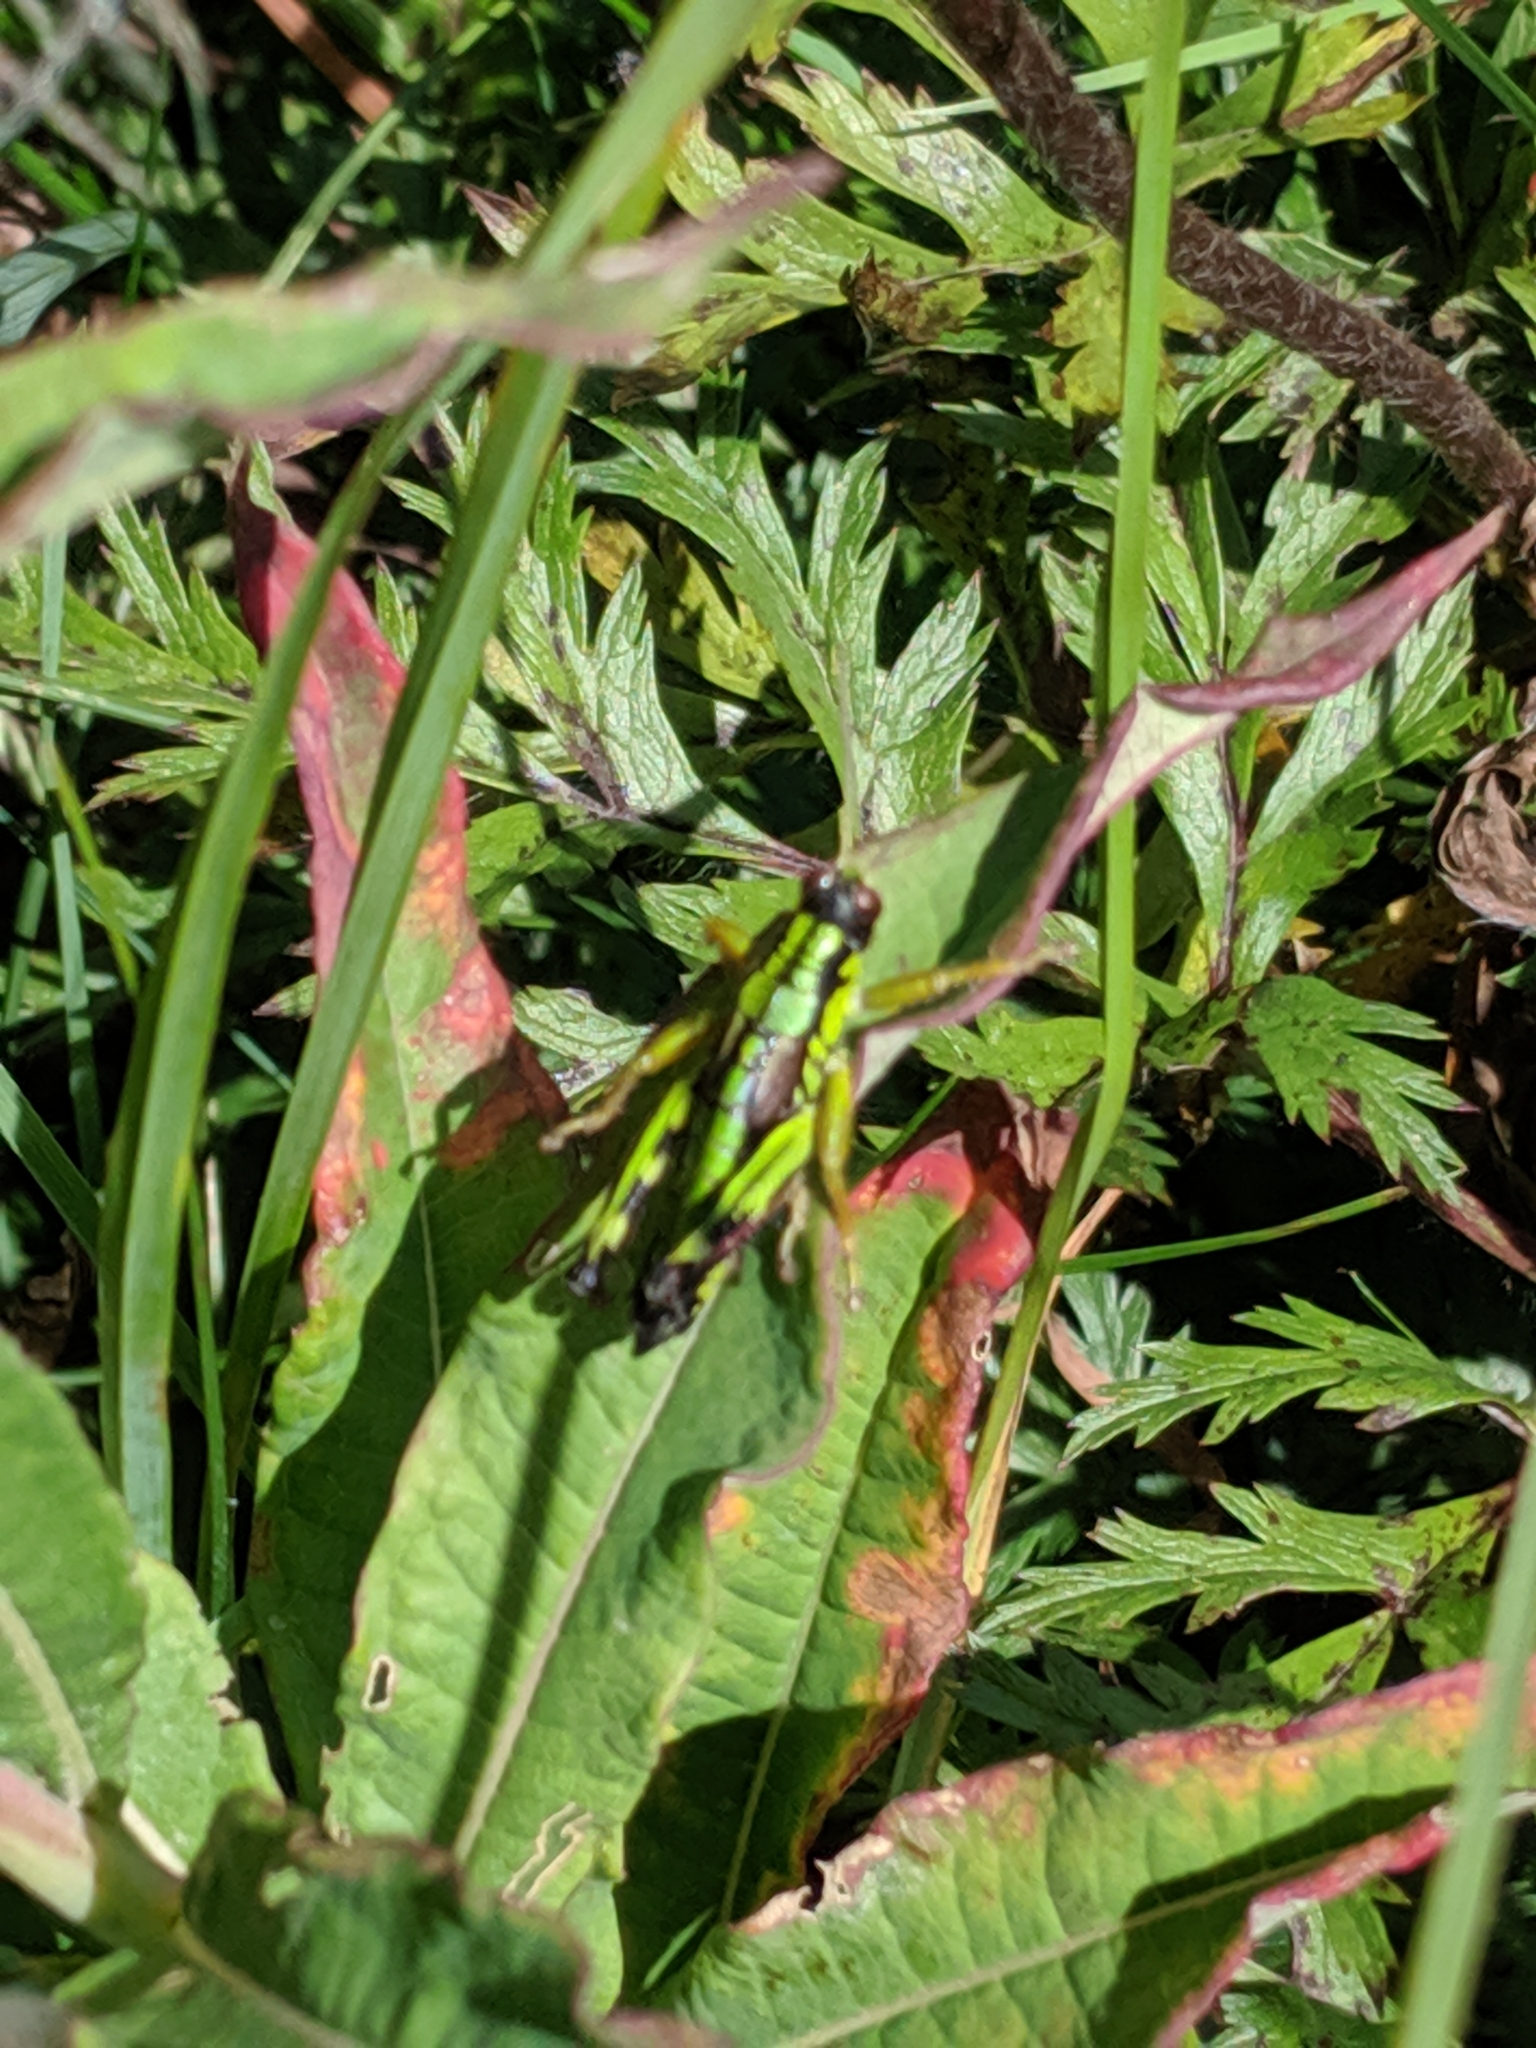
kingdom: Animalia
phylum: Arthropoda
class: Insecta
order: Orthoptera
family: Acrididae
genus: Miramella
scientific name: Miramella alpina
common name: Green mountain grasshopper
